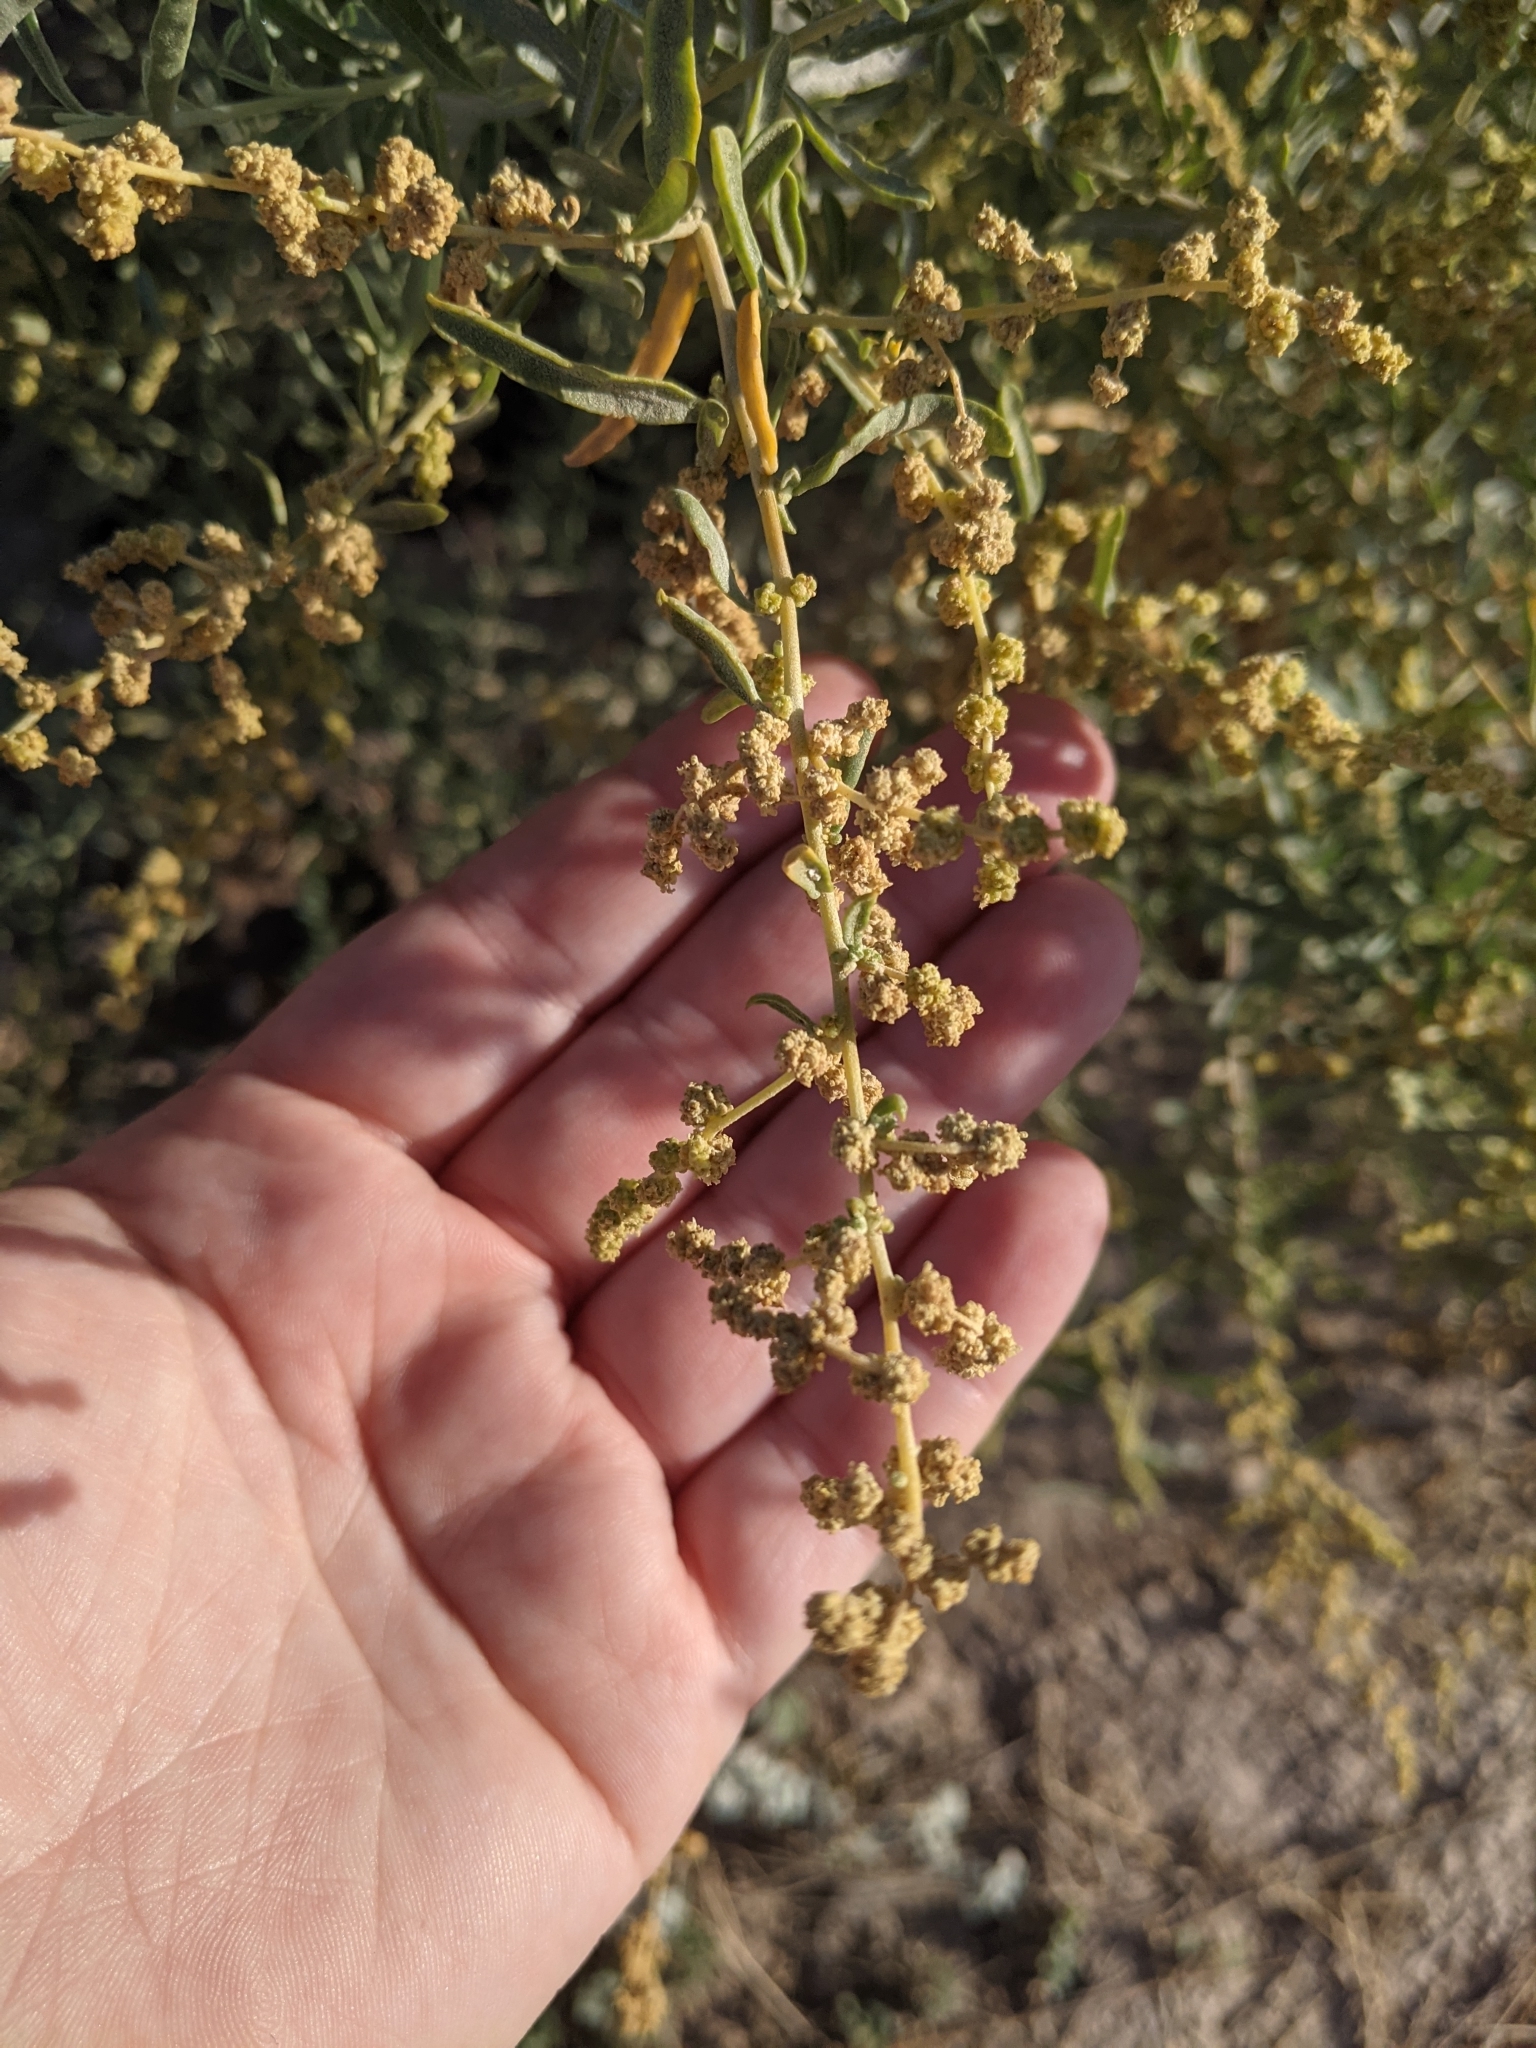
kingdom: Plantae
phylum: Tracheophyta
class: Magnoliopsida
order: Caryophyllales
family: Amaranthaceae
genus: Atriplex
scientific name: Atriplex canescens
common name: Four-wing saltbush
